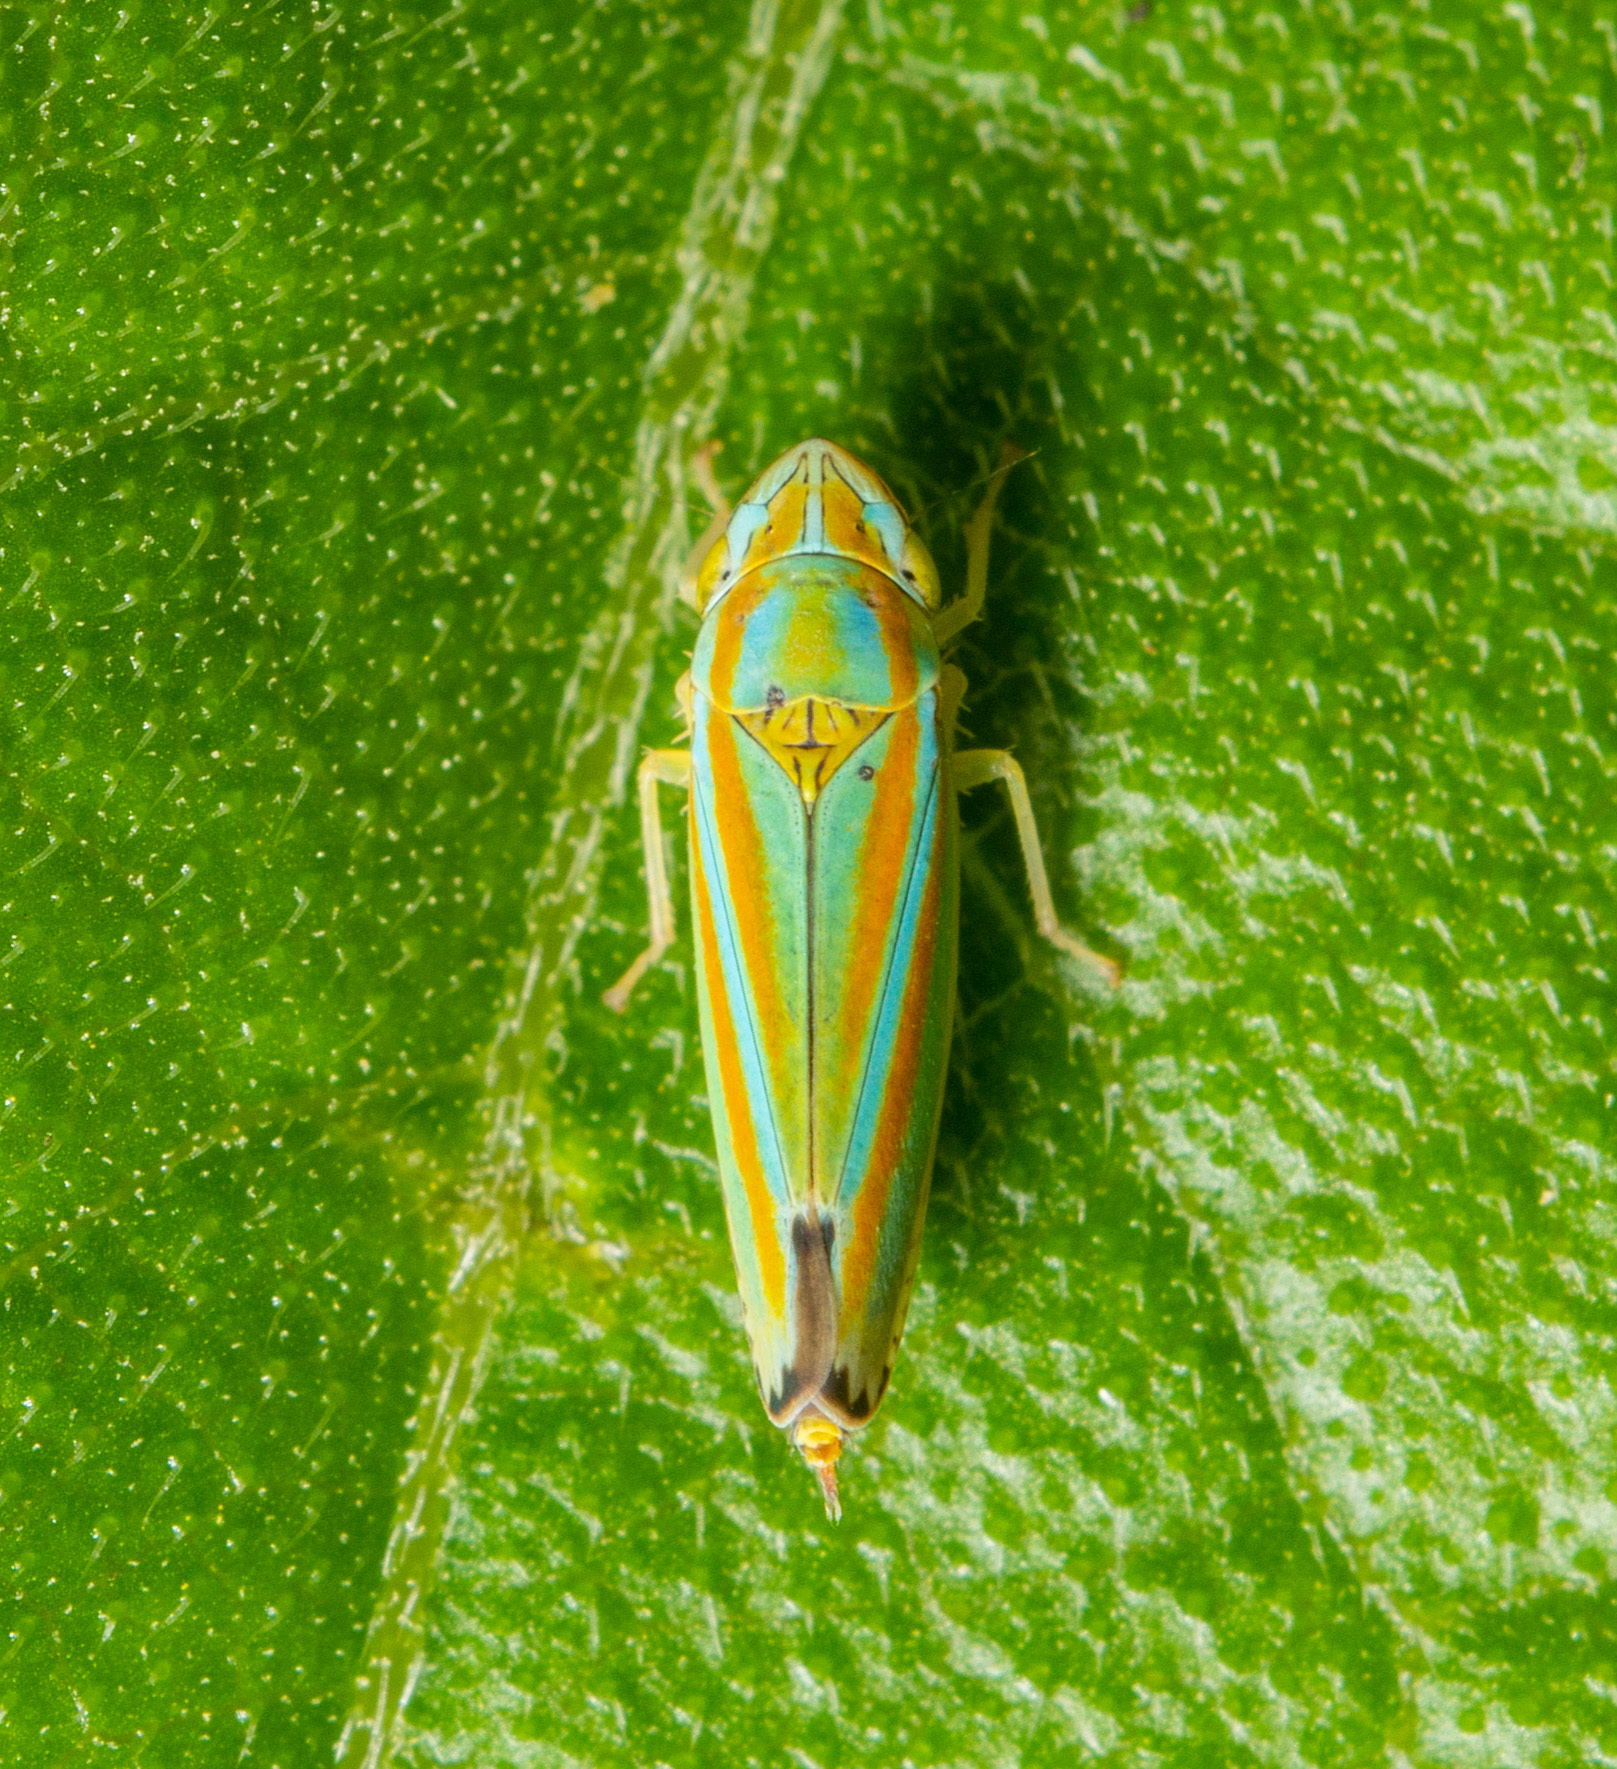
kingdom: Animalia
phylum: Arthropoda
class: Insecta
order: Hemiptera
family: Cicadellidae
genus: Graphocephala
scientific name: Graphocephala versuta
